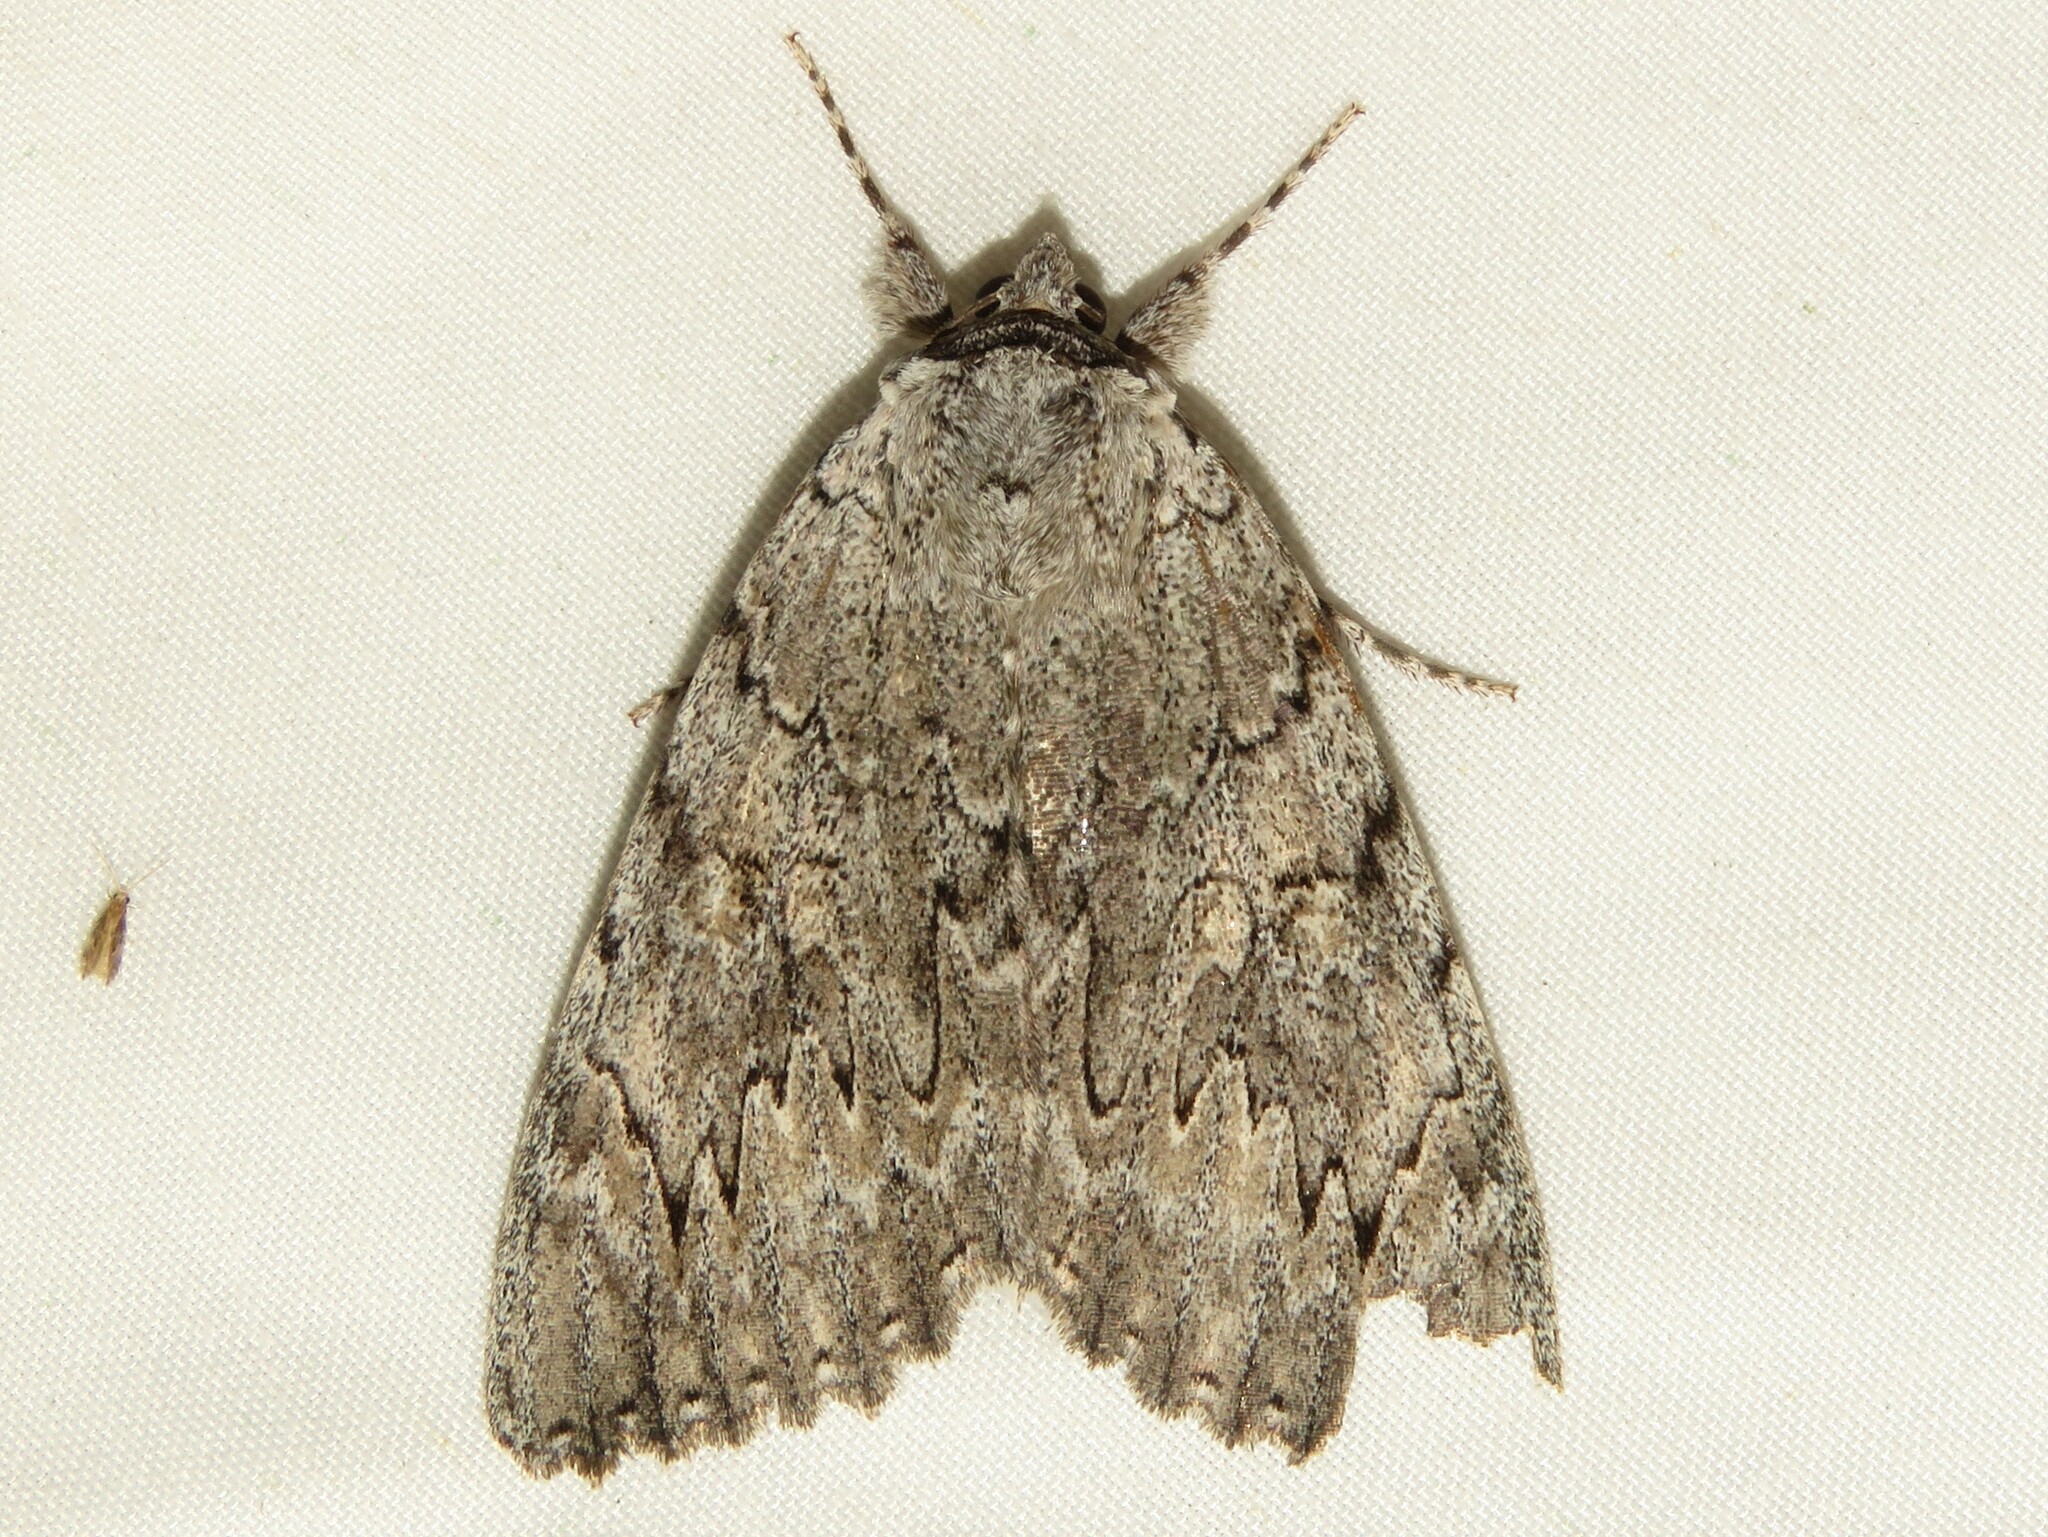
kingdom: Animalia
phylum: Arthropoda
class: Insecta
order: Lepidoptera
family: Erebidae
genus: Catocala
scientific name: Catocala robinsoni
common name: Robinson's underwing
